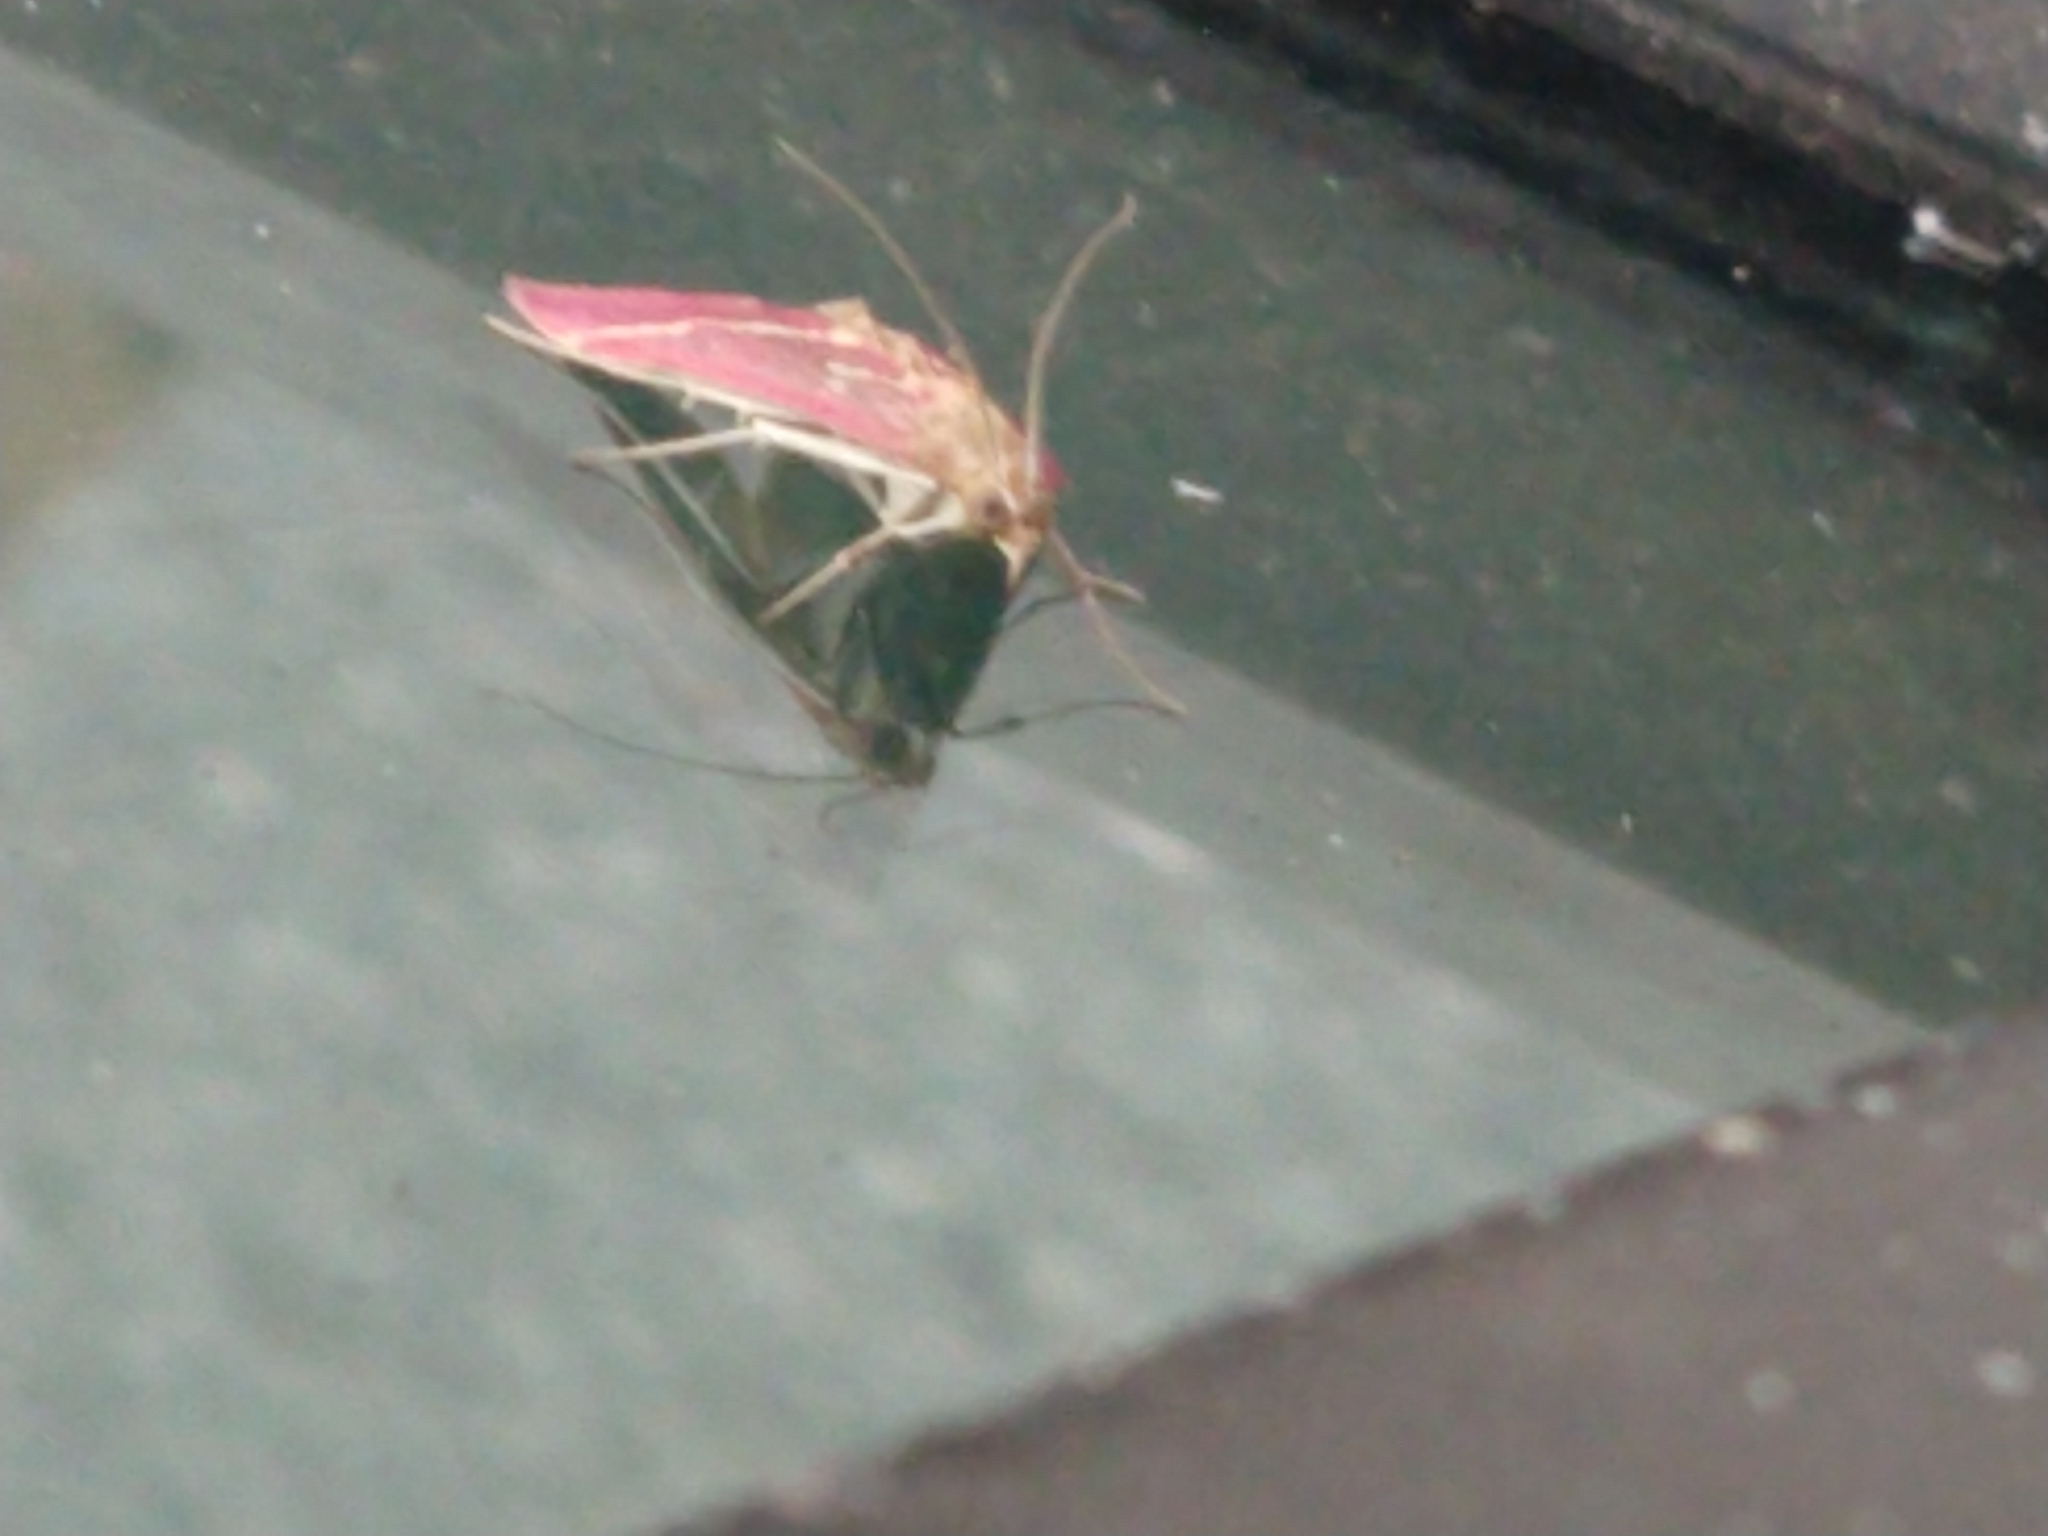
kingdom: Animalia
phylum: Arthropoda
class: Insecta
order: Lepidoptera
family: Crambidae
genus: Pyrausta
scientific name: Pyrausta volupialis
